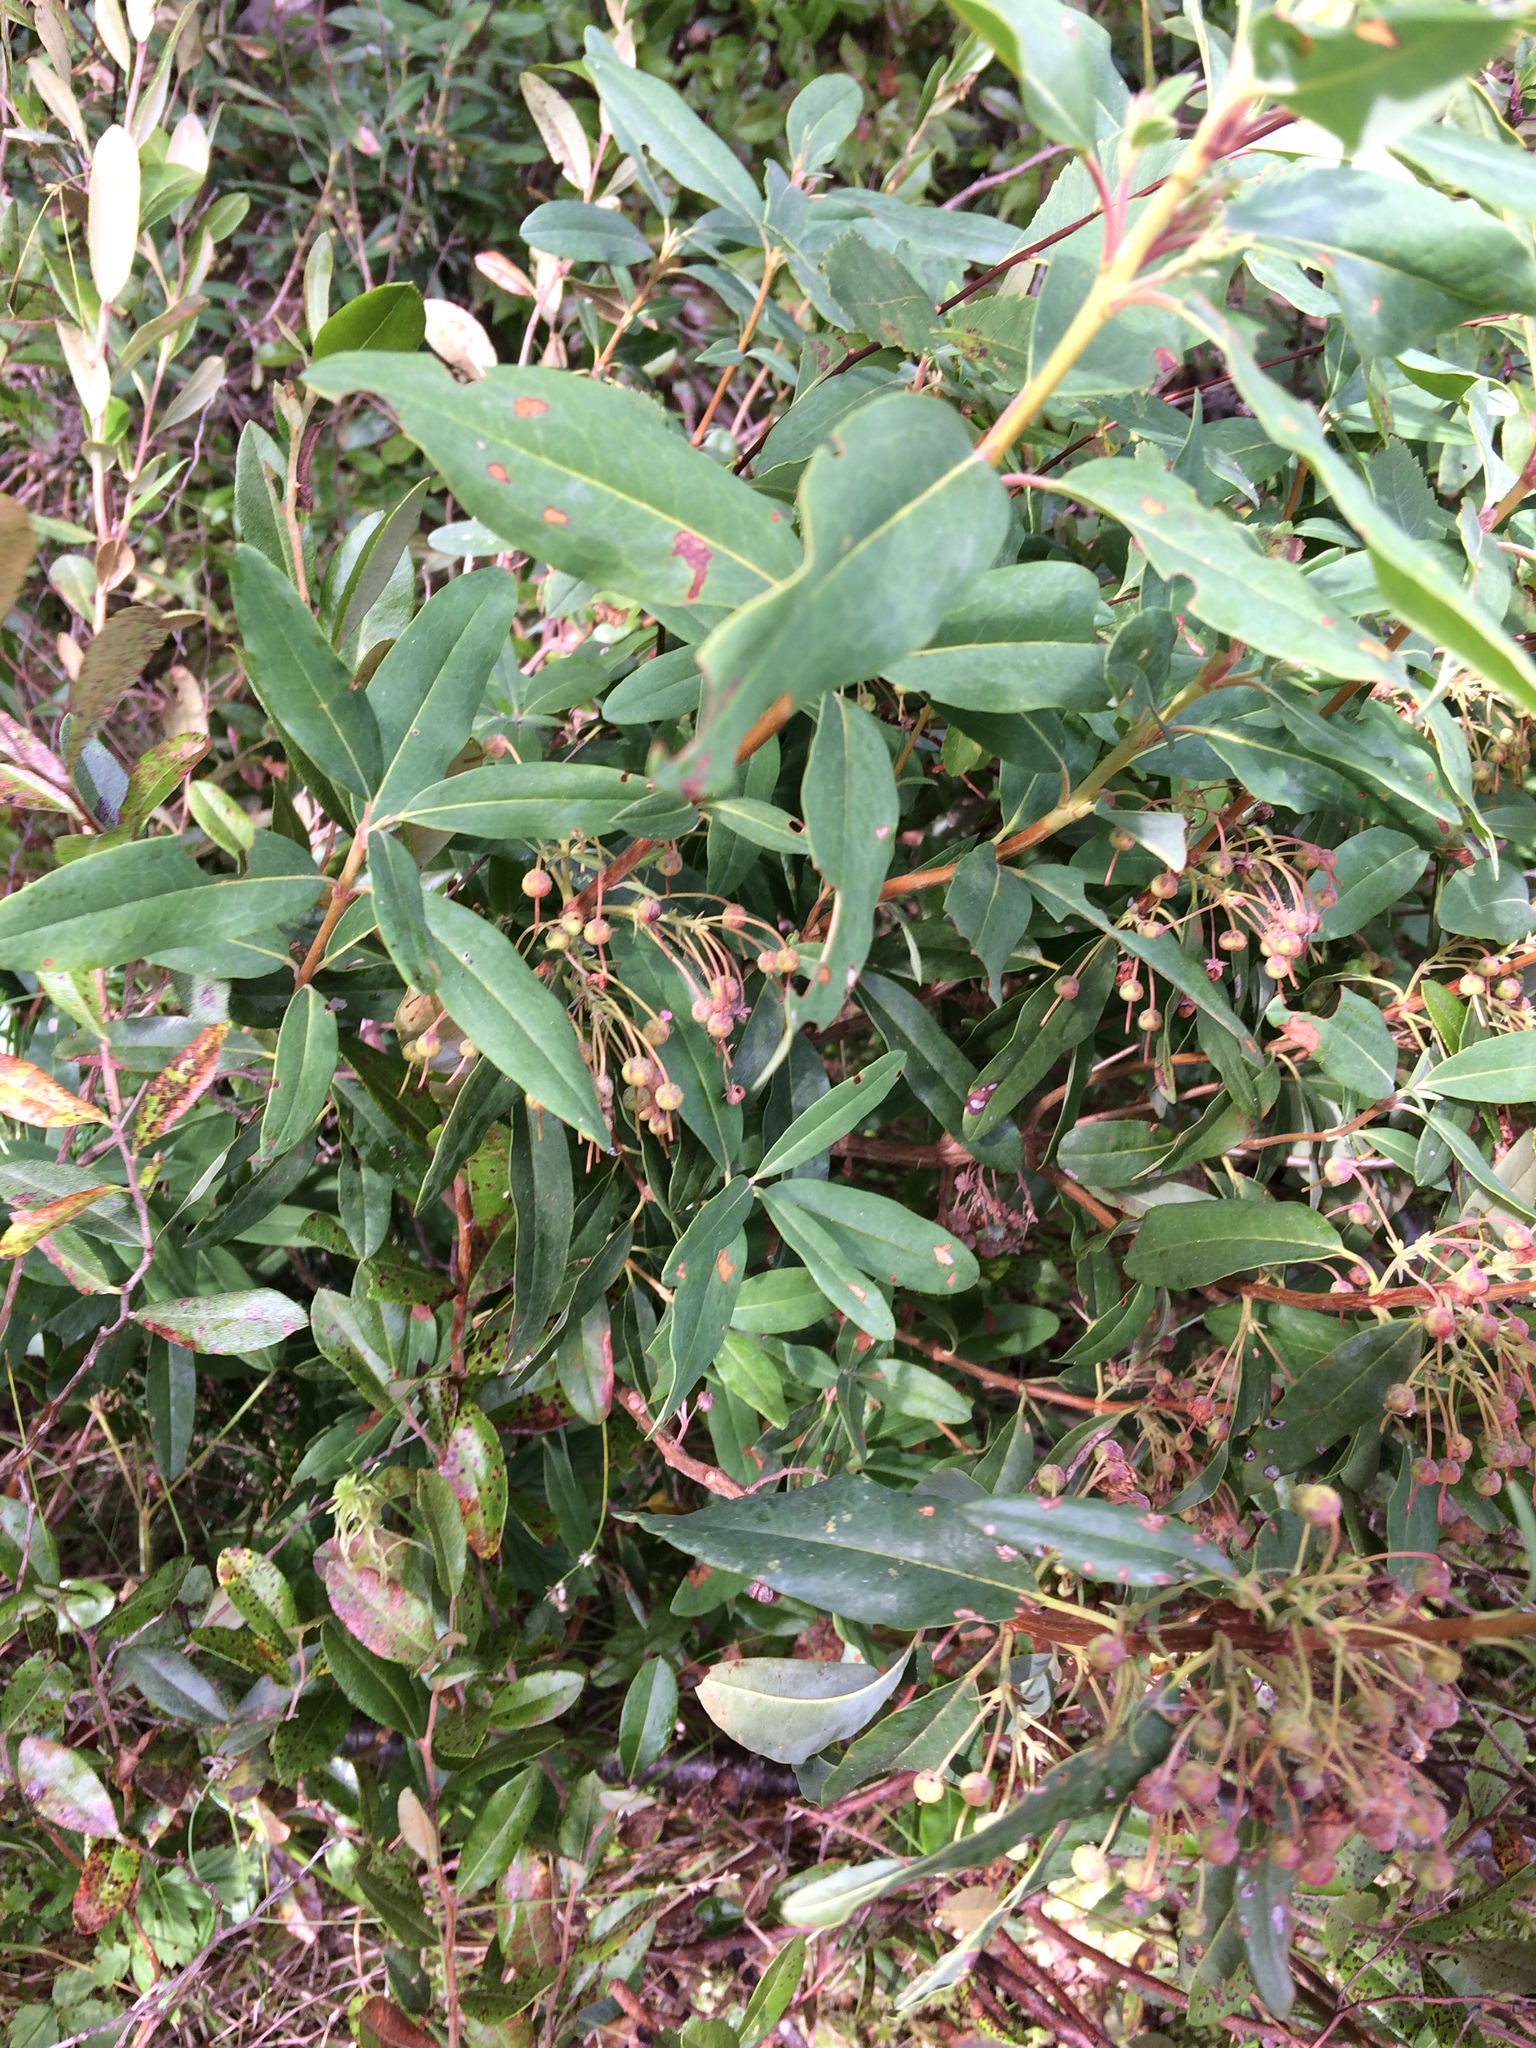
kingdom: Plantae
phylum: Tracheophyta
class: Magnoliopsida
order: Ericales
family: Ericaceae
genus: Kalmia
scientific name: Kalmia angustifolia
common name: Sheep-laurel
